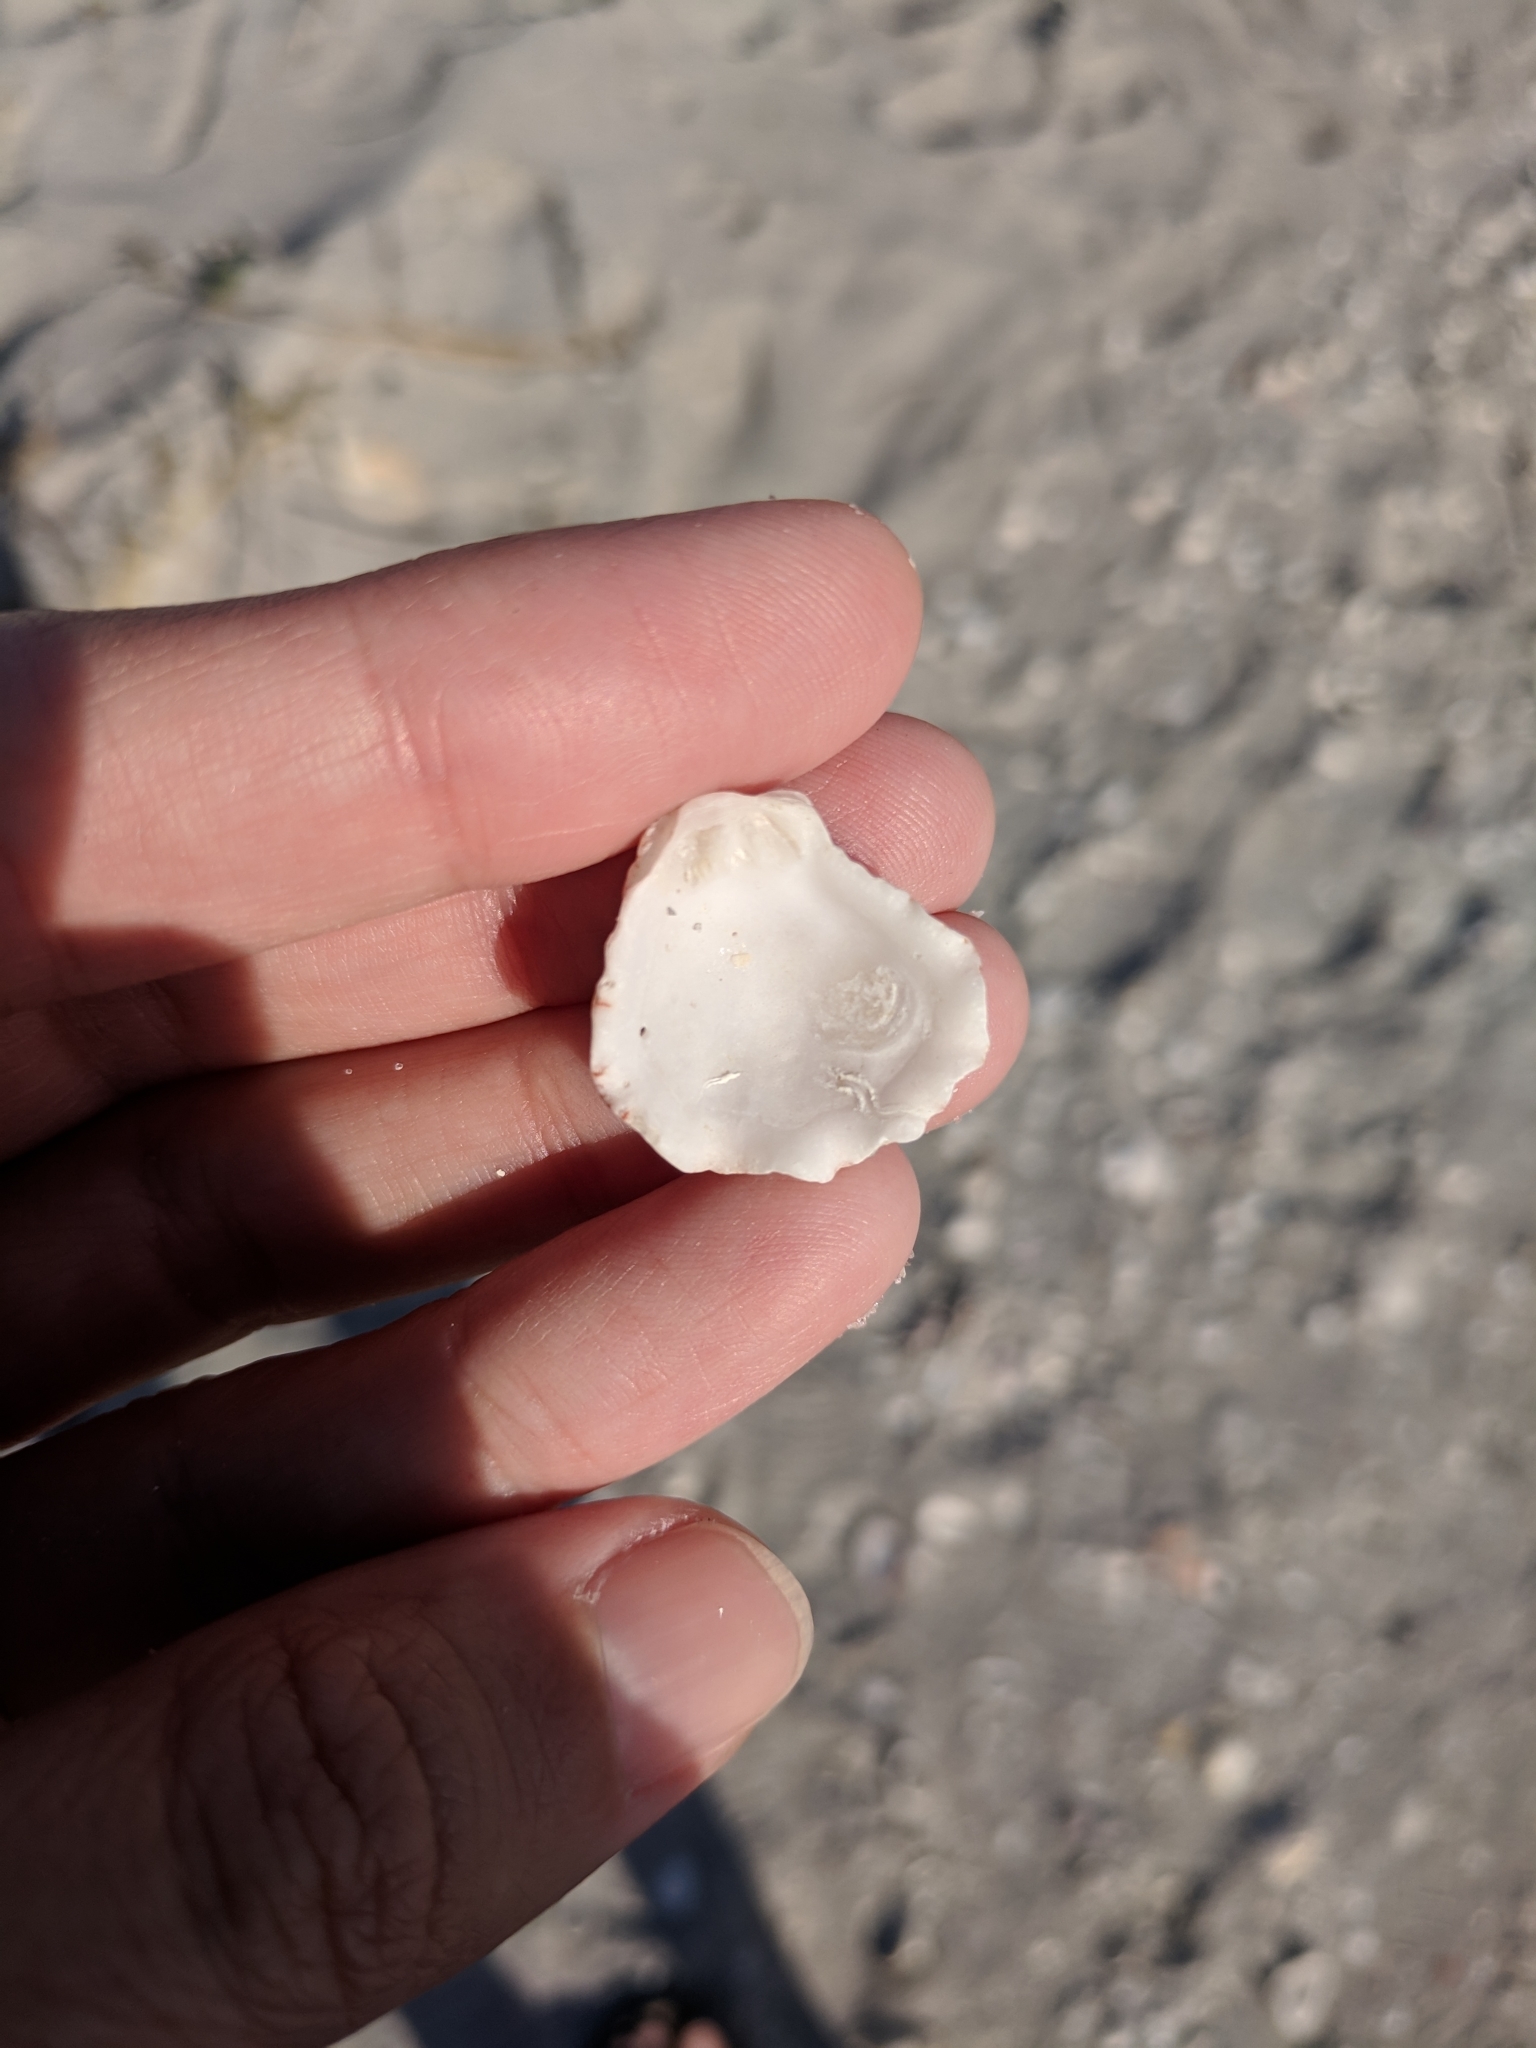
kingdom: Animalia
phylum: Mollusca
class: Bivalvia
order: Pectinida
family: Plicatulidae
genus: Plicatula
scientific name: Plicatula gibbosa
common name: Atlantic kitten's paw
